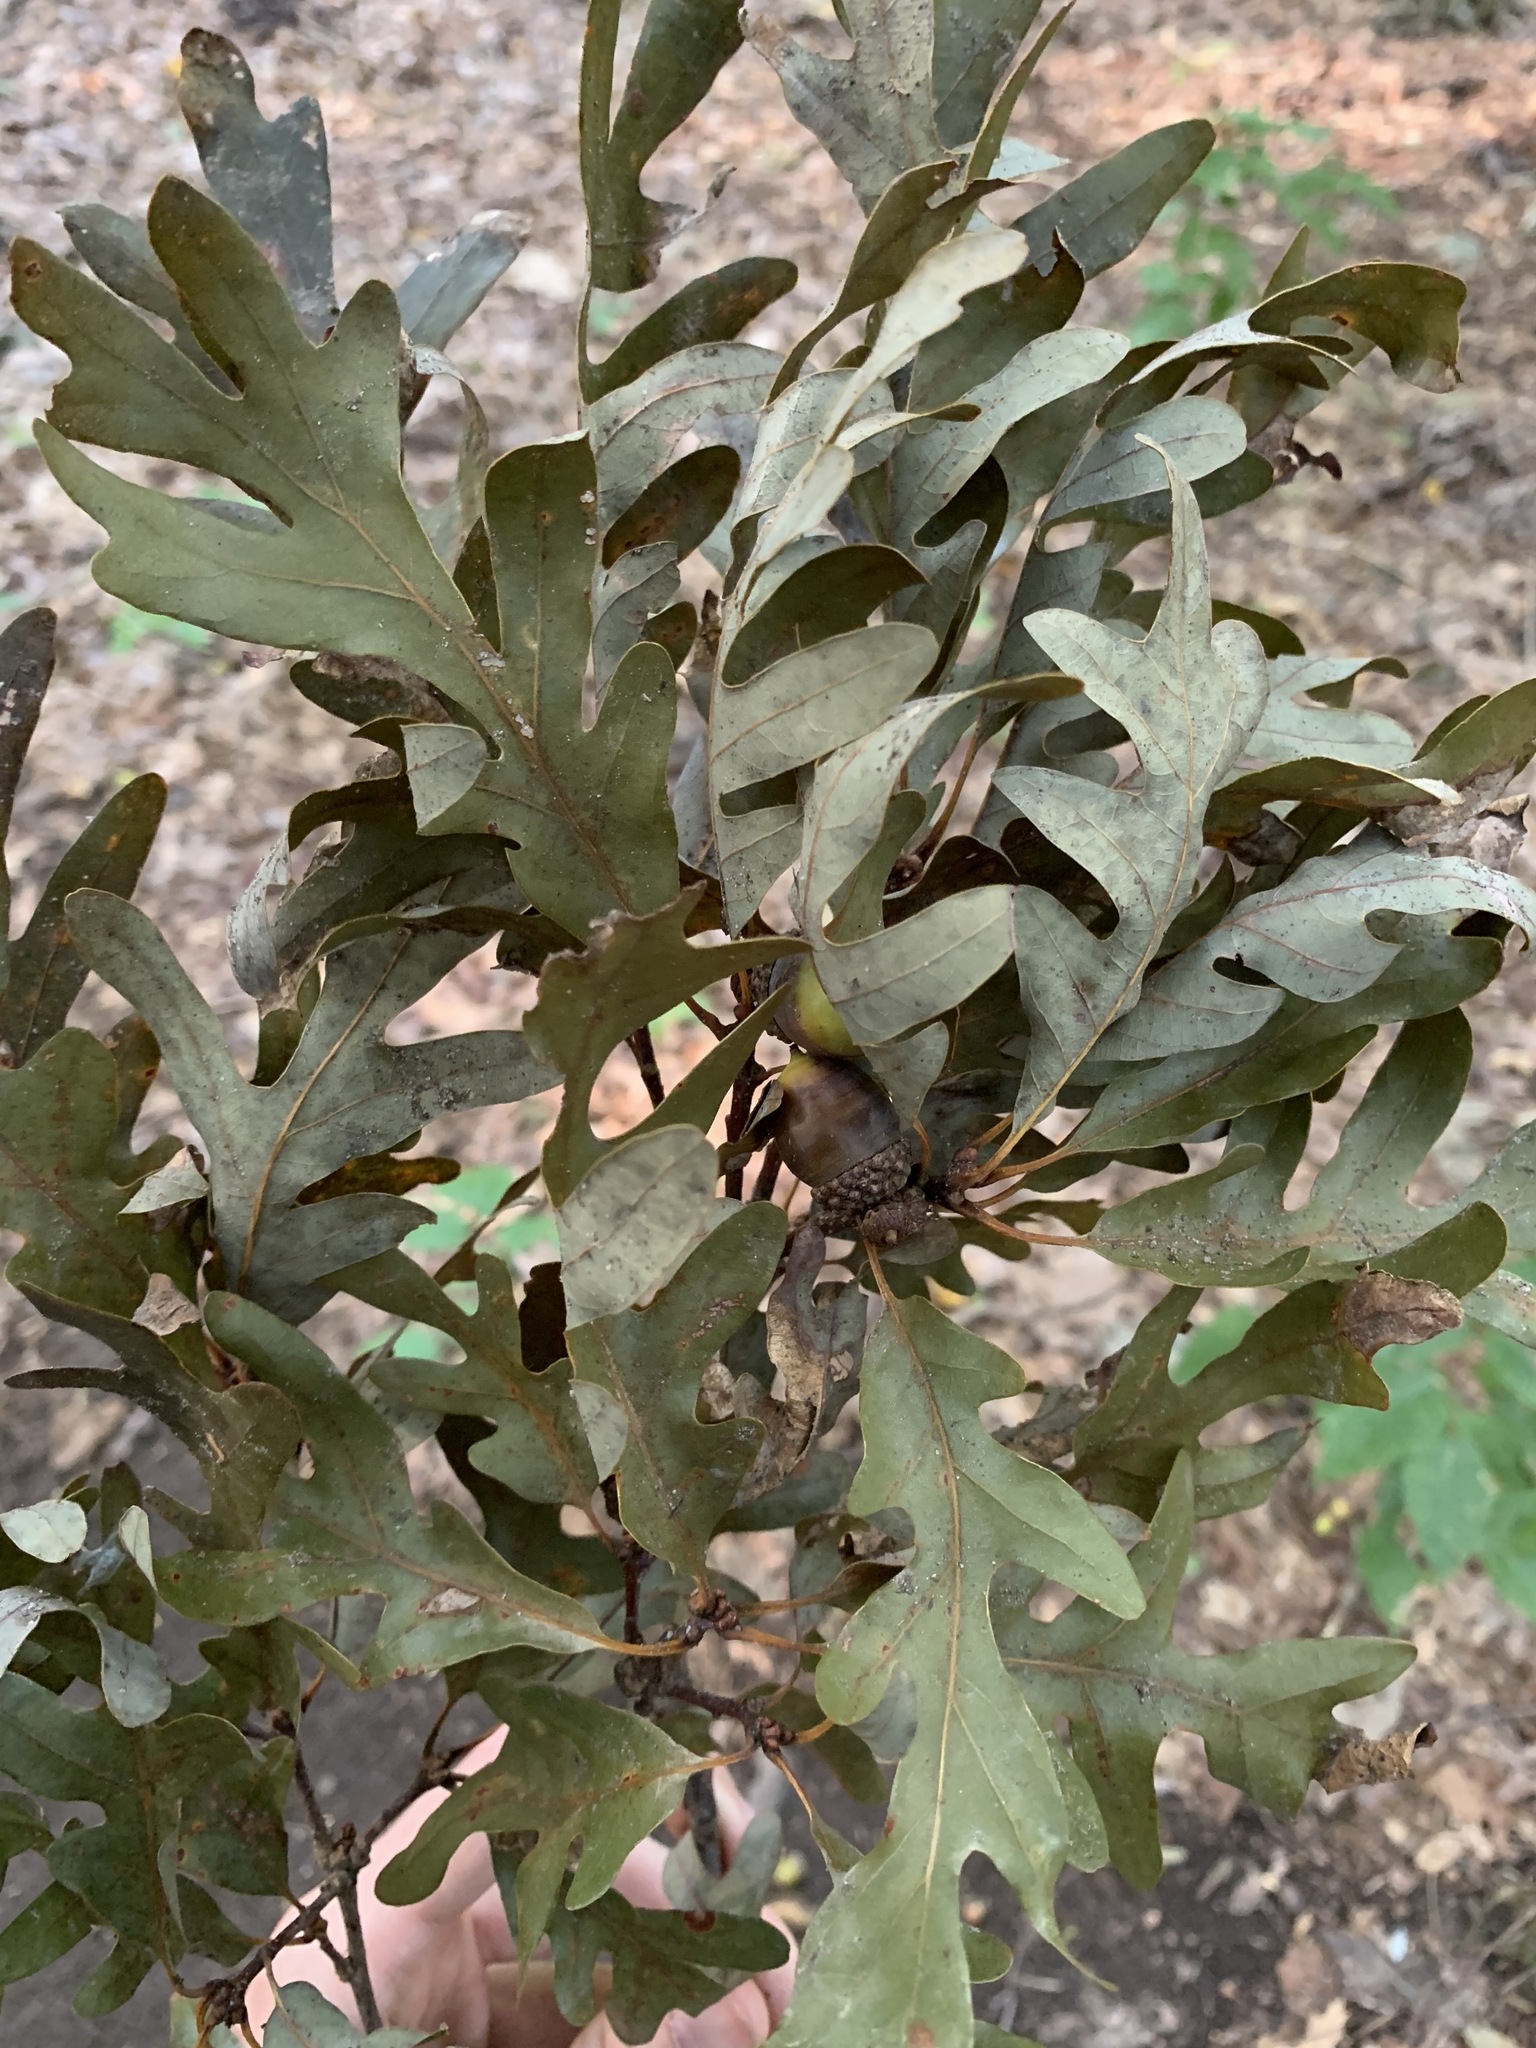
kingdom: Plantae
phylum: Tracheophyta
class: Magnoliopsida
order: Fagales
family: Fagaceae
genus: Quercus
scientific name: Quercus alba
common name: White oak
